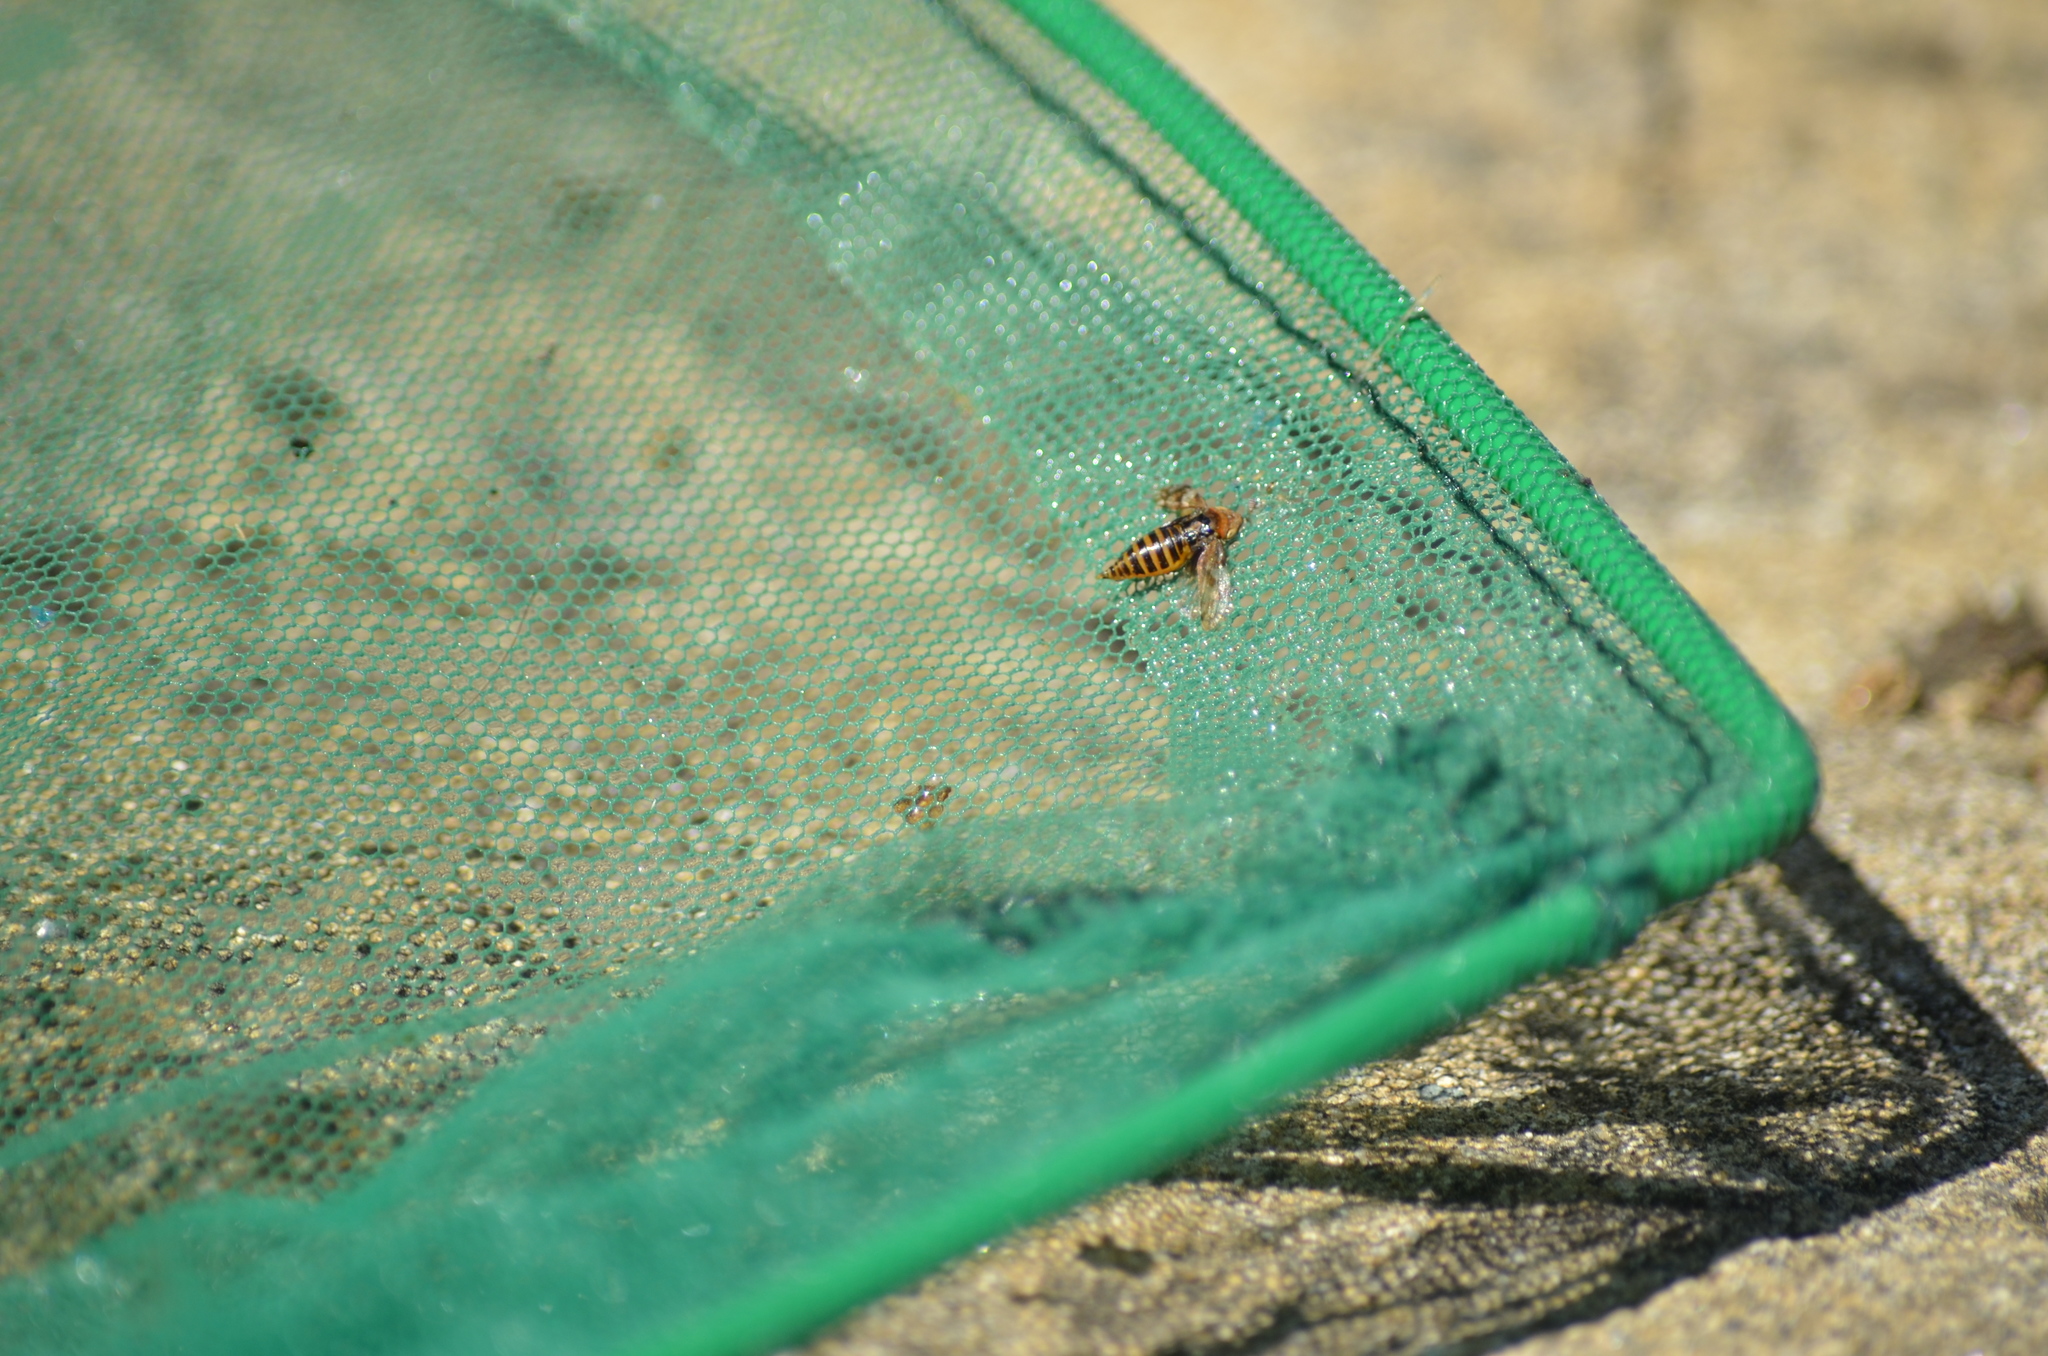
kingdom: Animalia
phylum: Arthropoda
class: Insecta
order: Hemiptera
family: Aphrophoridae
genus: Philaenus
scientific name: Philaenus spumarius
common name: Meadow spittlebug
